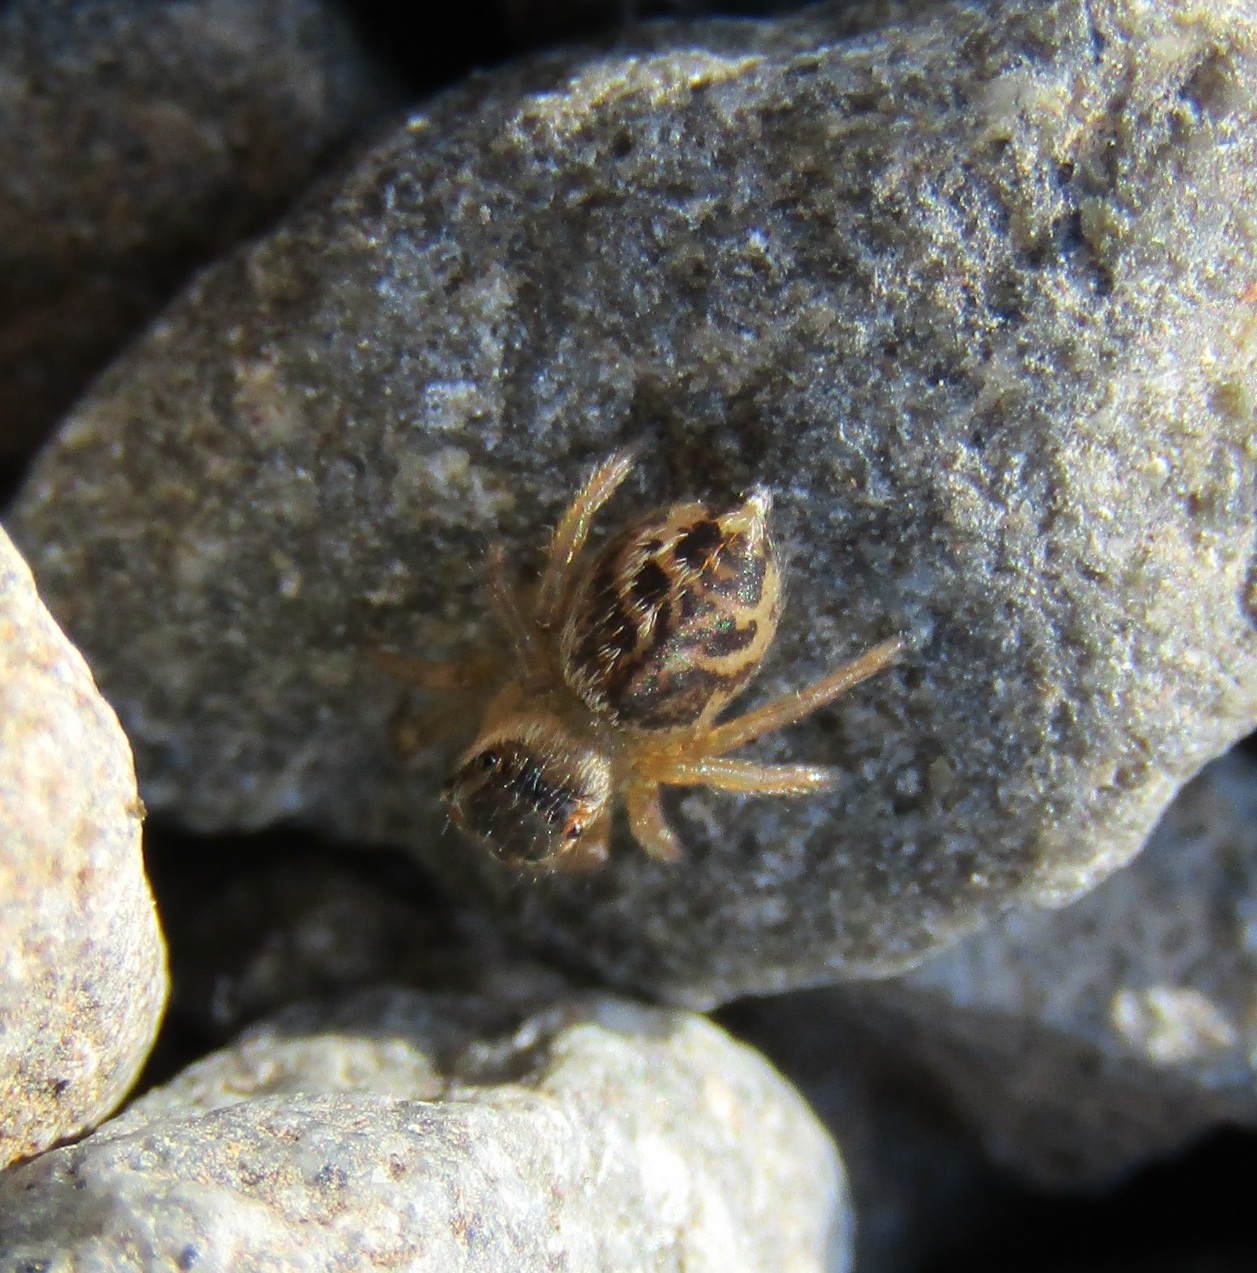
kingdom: Animalia
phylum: Arthropoda
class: Arachnida
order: Araneae
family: Salticidae
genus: Maratus
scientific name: Maratus griseus
